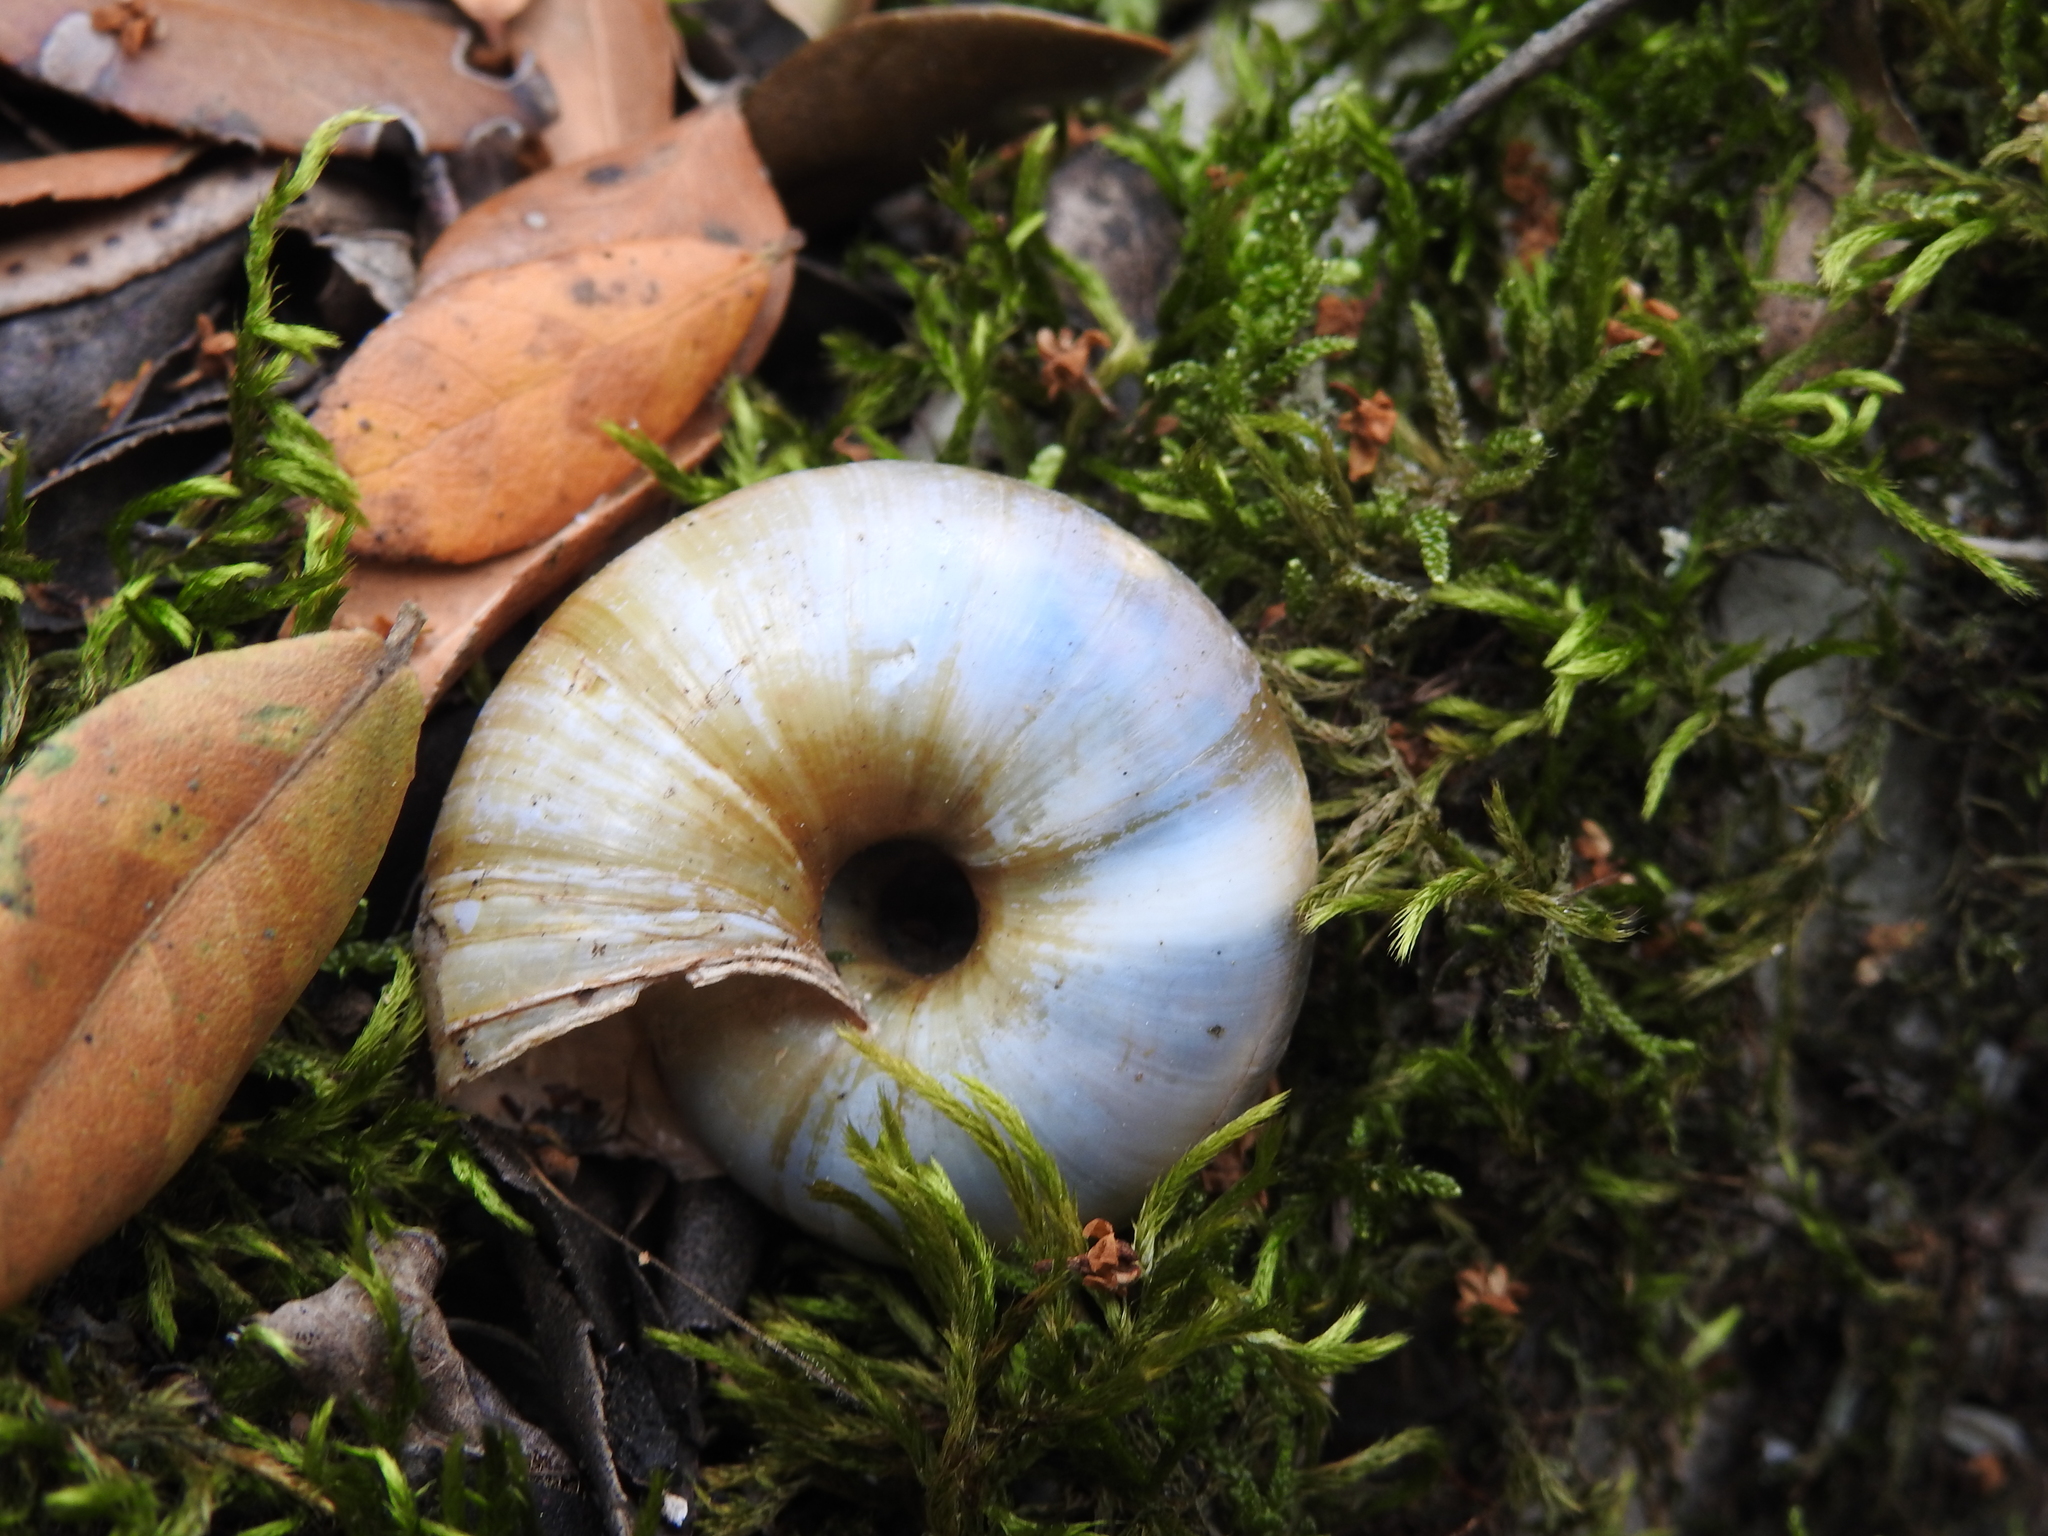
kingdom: Animalia
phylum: Mollusca
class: Gastropoda
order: Stylommatophora
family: Zonitidae
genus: Zonites
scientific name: Zonites algirus
